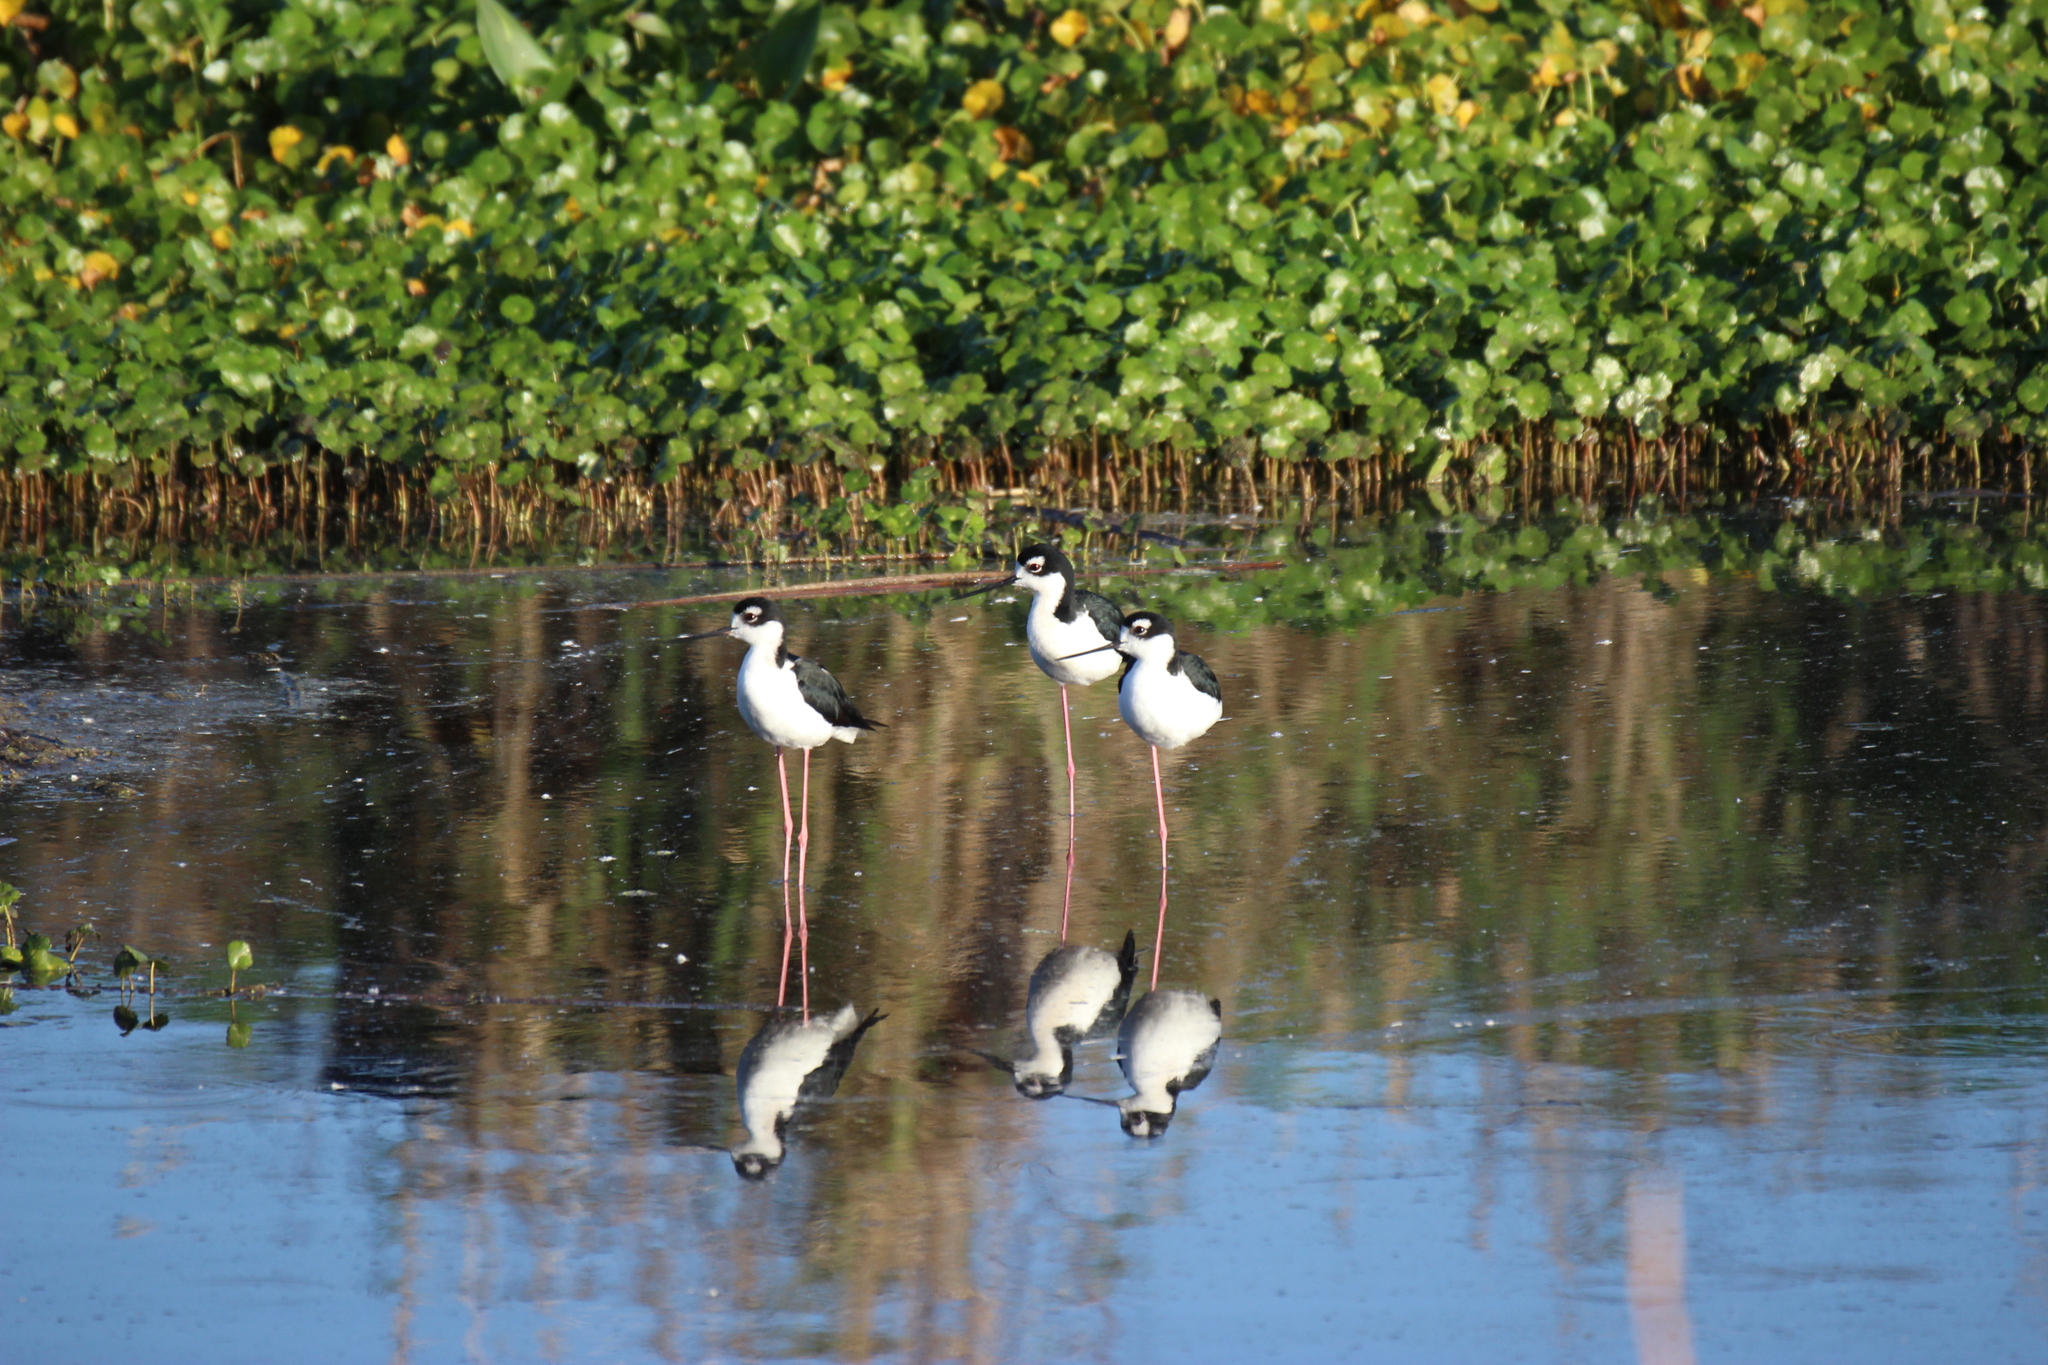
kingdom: Animalia
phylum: Chordata
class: Aves
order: Charadriiformes
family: Recurvirostridae
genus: Himantopus
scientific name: Himantopus mexicanus
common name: Black-necked stilt
